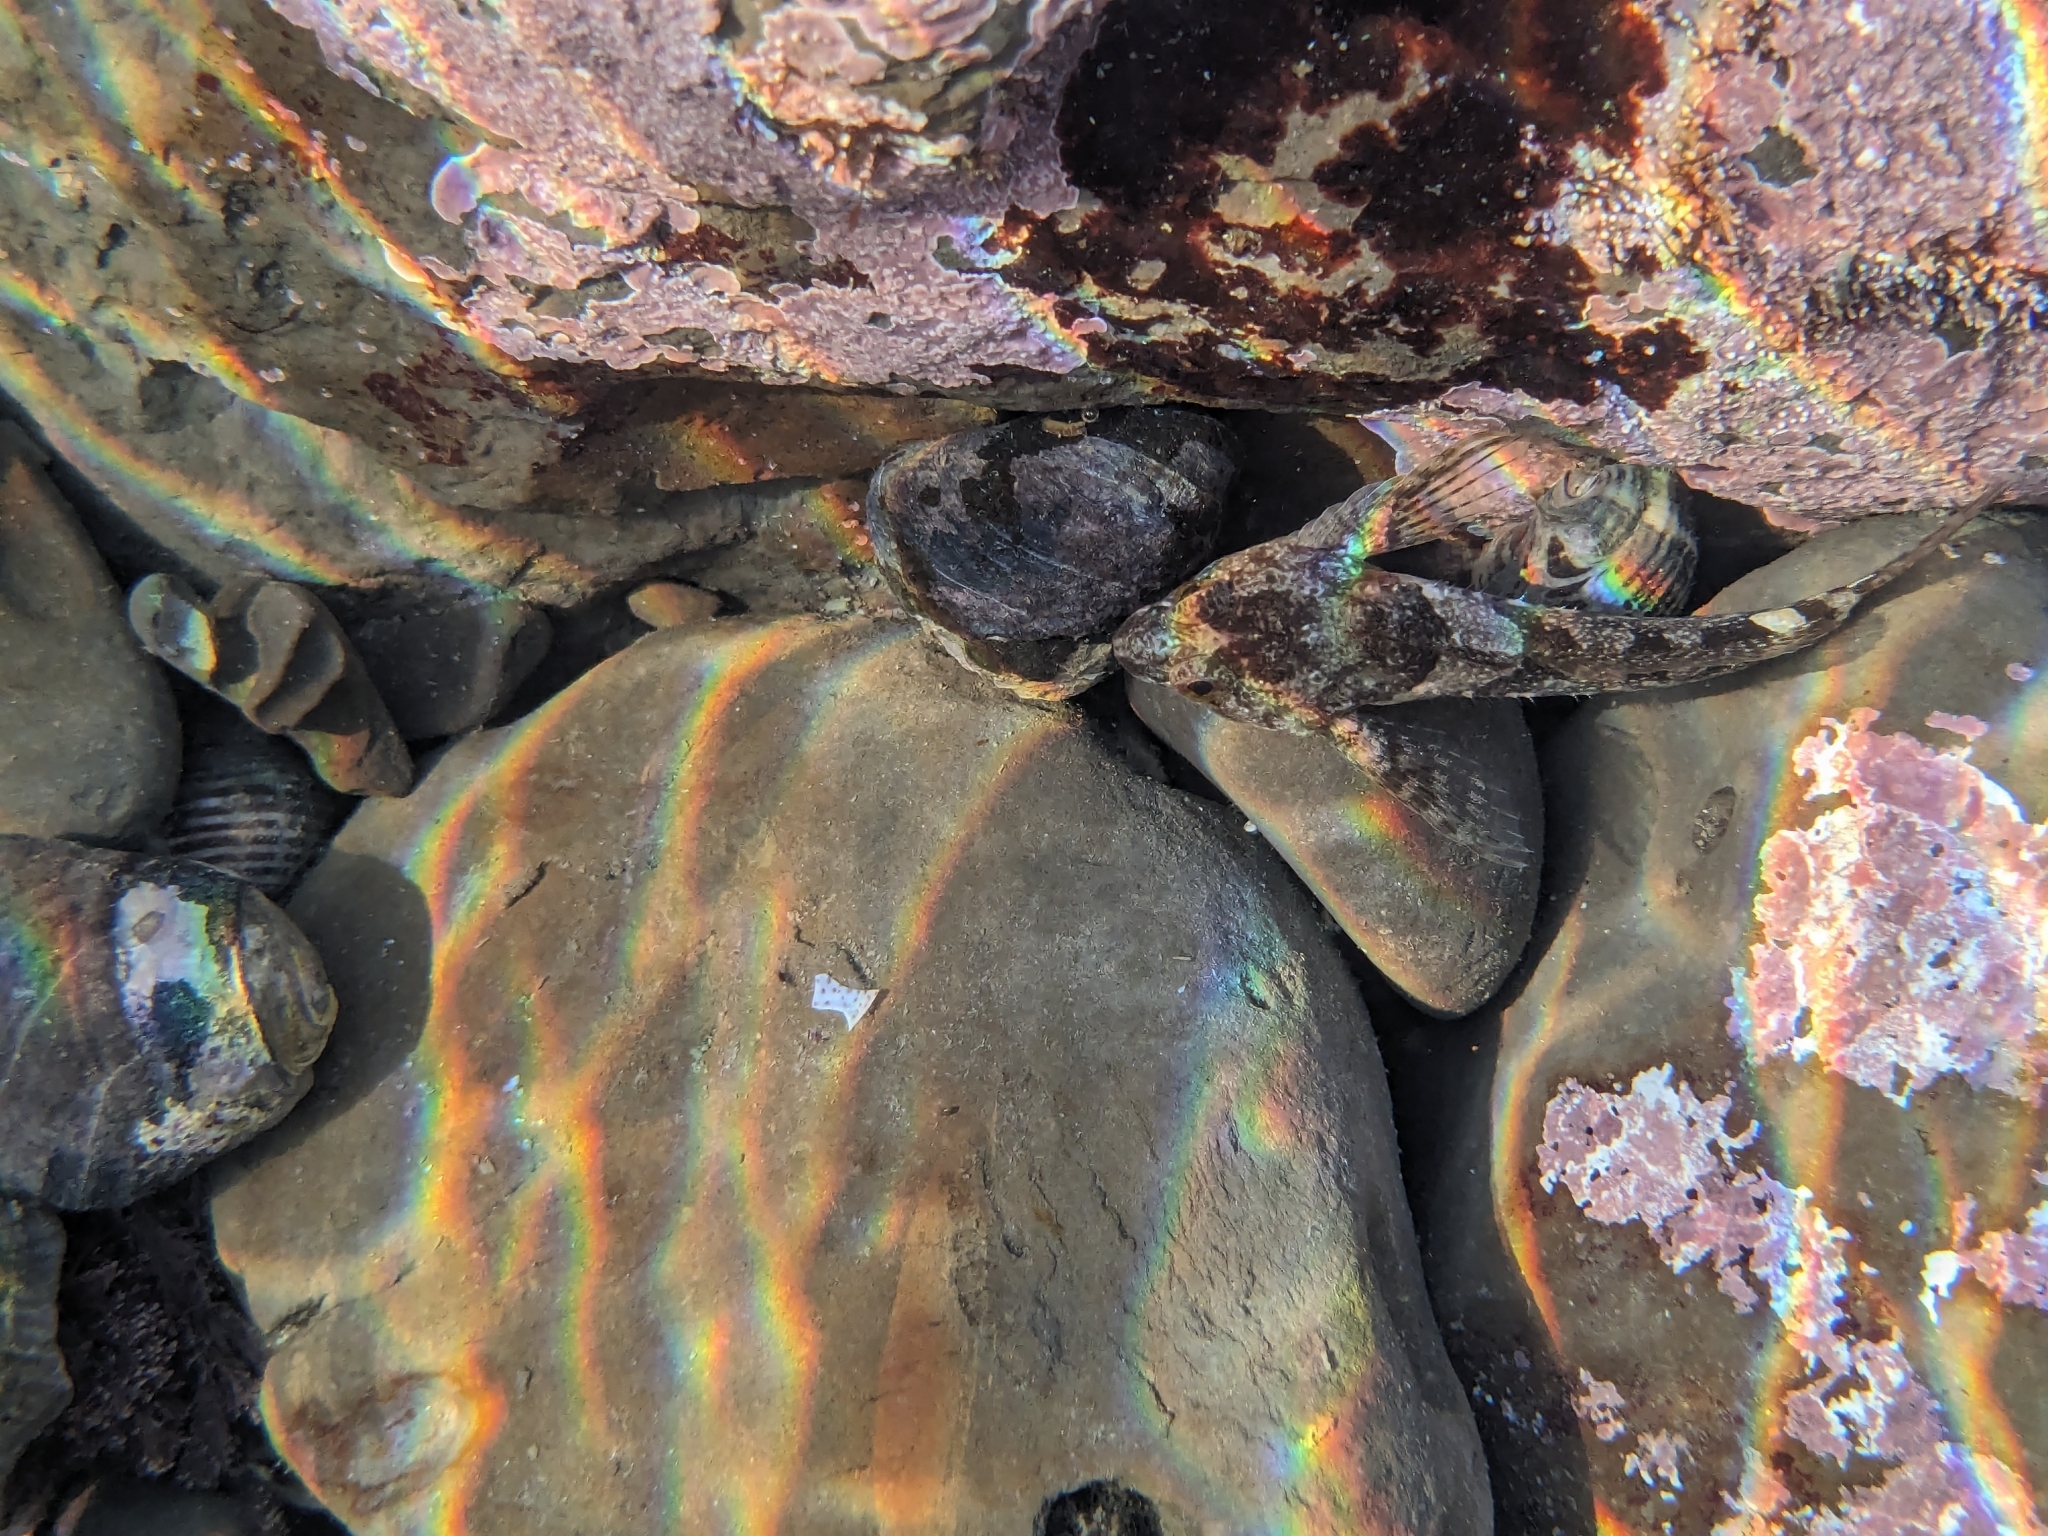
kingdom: Animalia
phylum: Chordata
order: Scorpaeniformes
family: Cottidae
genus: Oligocottus
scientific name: Oligocottus maculosus
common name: Tidepool sculpin
